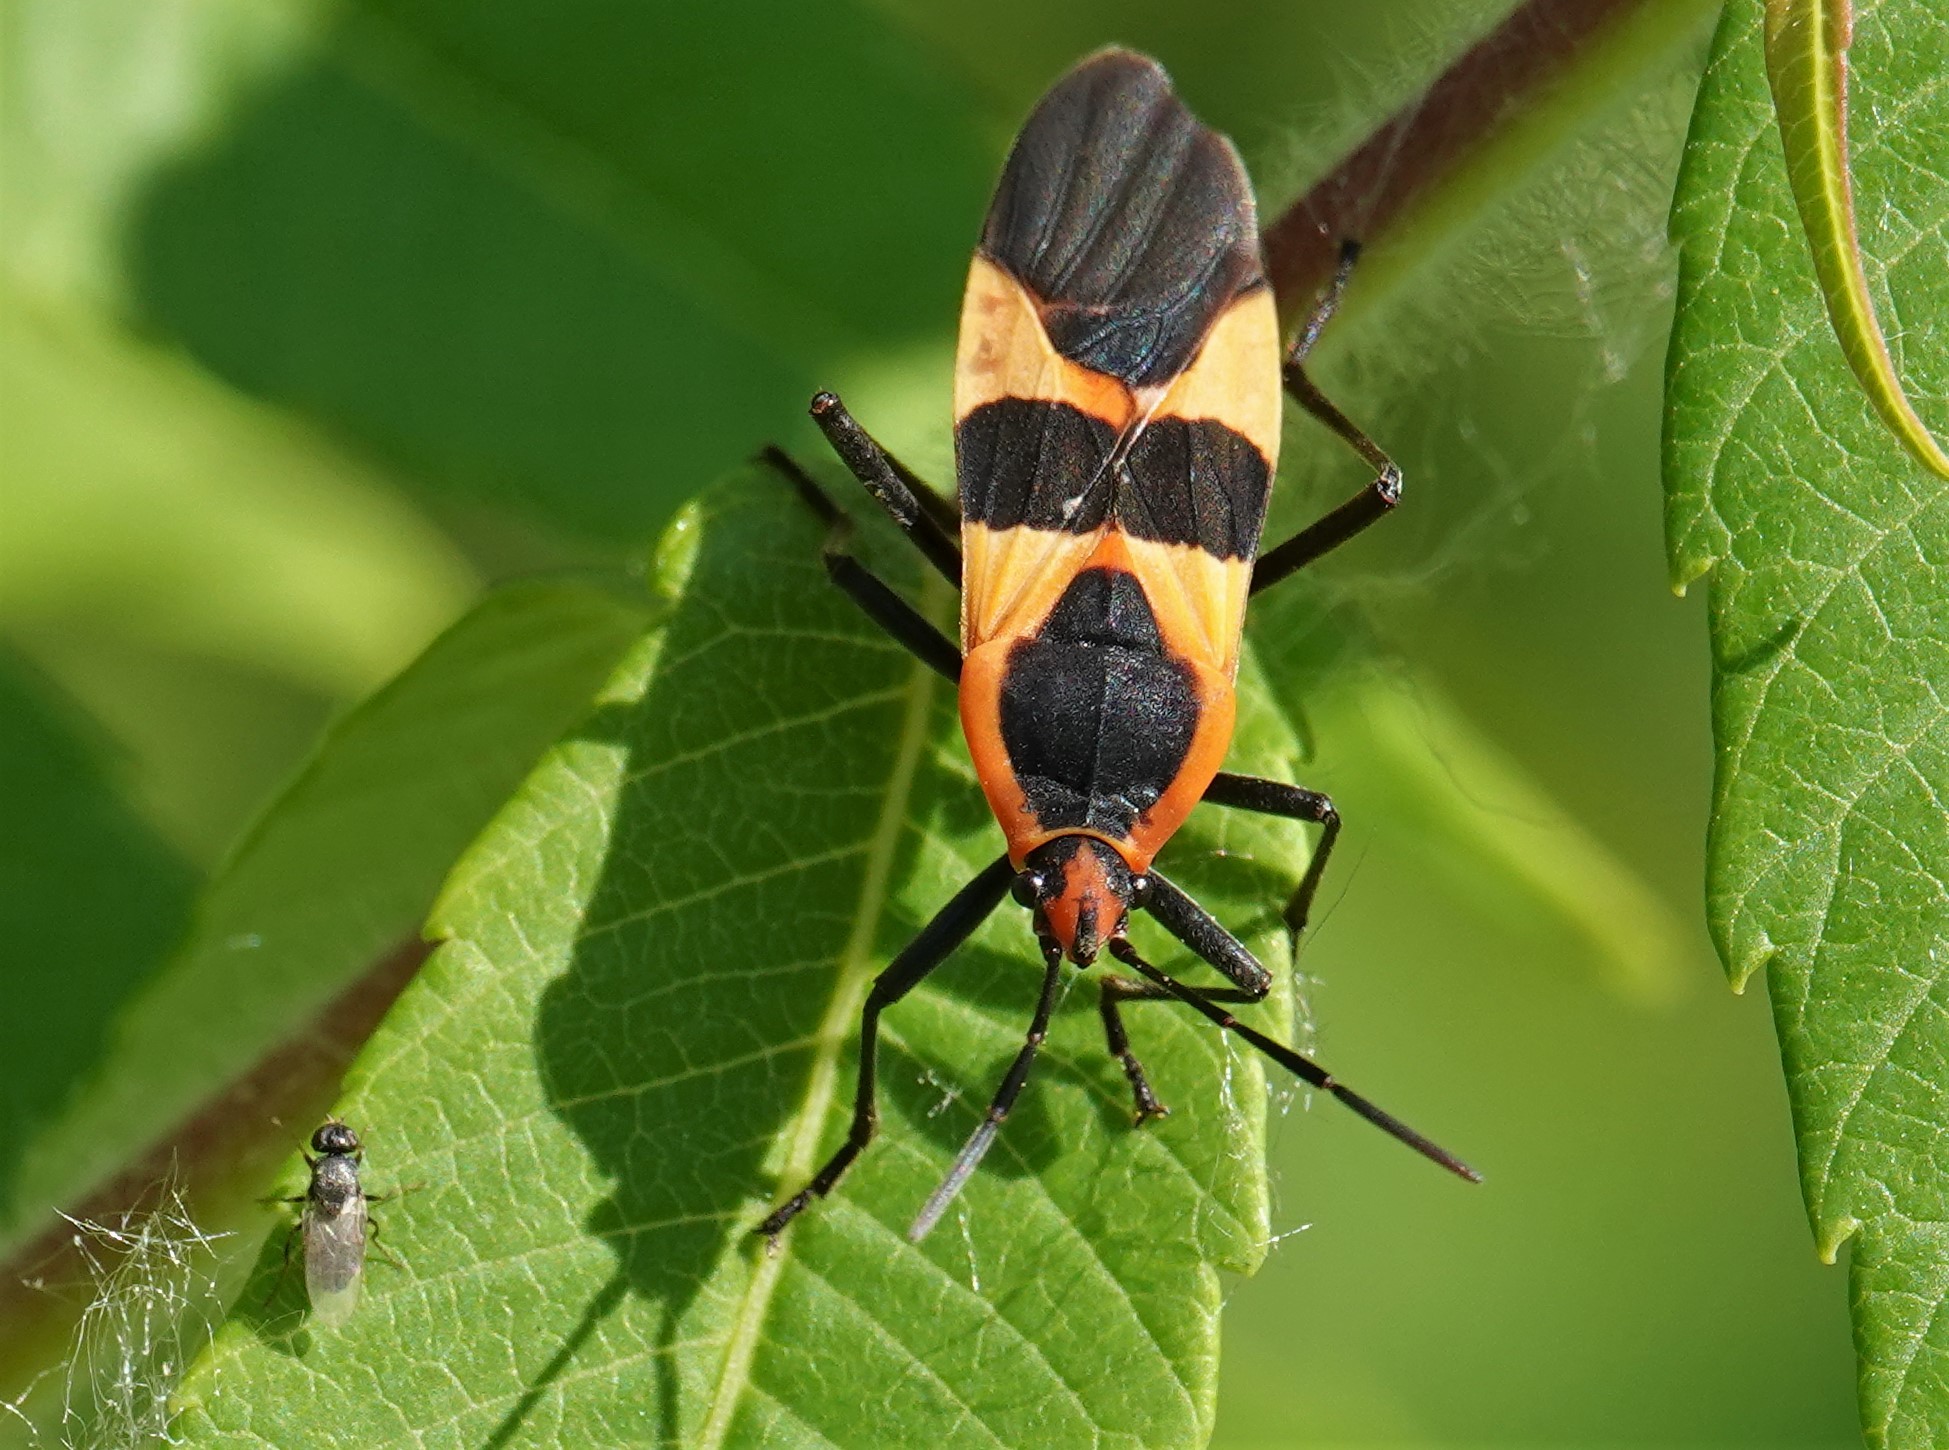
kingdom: Animalia
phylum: Arthropoda
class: Insecta
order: Hemiptera
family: Lygaeidae
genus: Oncopeltus
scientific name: Oncopeltus fasciatus
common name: Large milkweed bug
